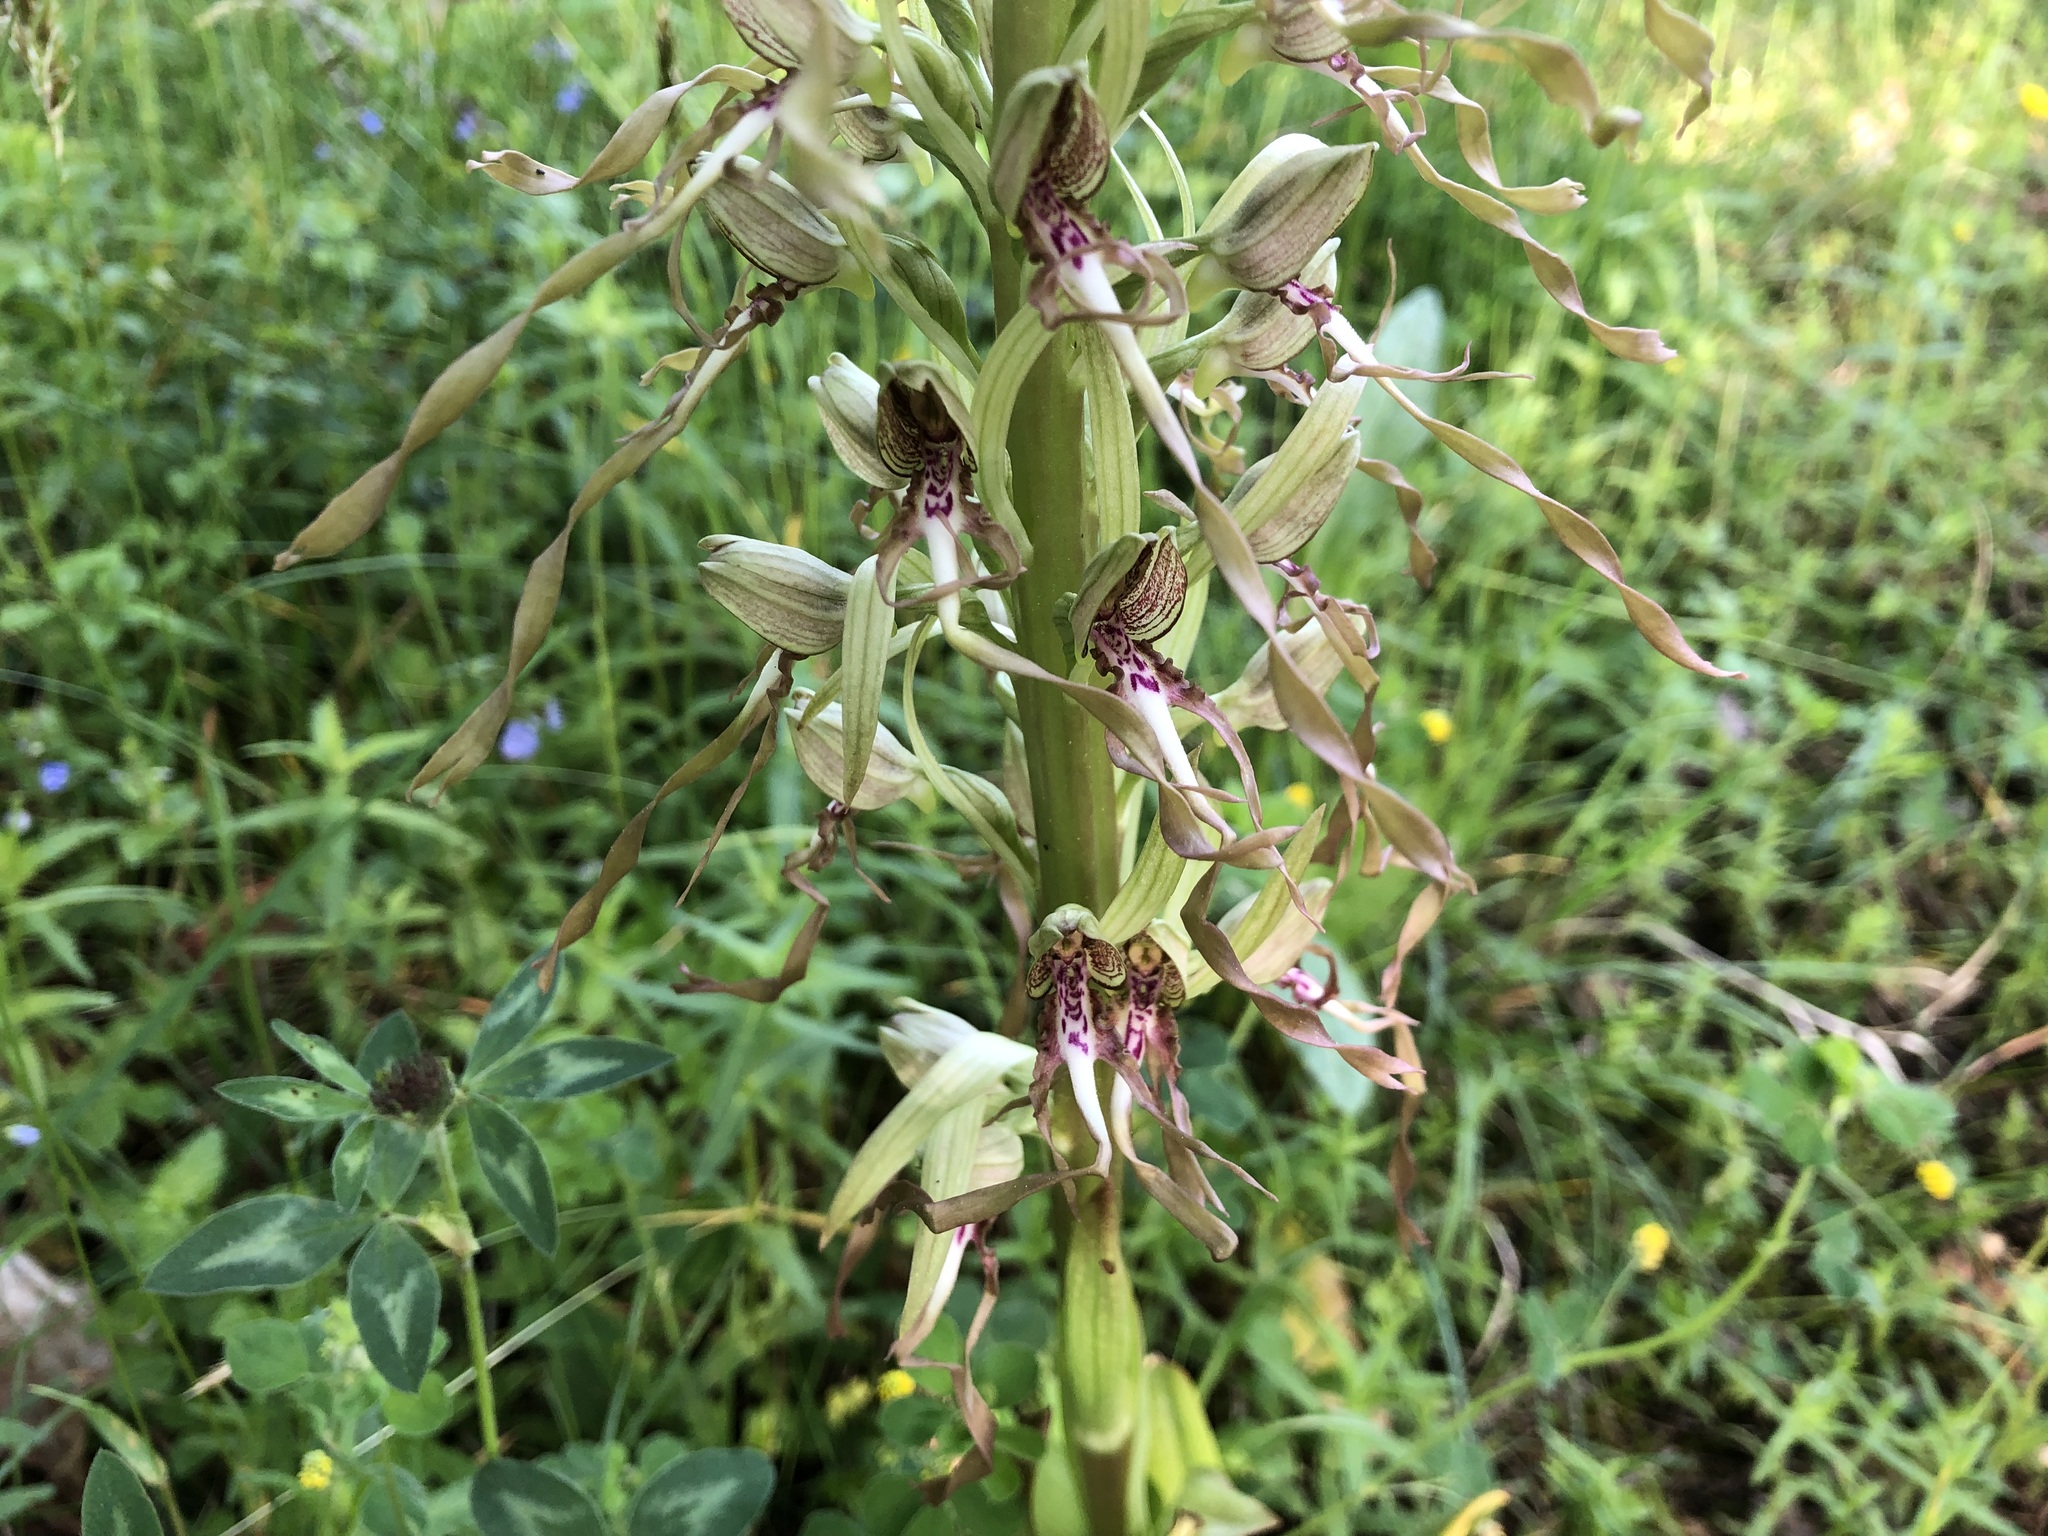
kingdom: Plantae
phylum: Tracheophyta
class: Liliopsida
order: Asparagales
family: Orchidaceae
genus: Himantoglossum
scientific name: Himantoglossum hircinum
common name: Lizard orchid
